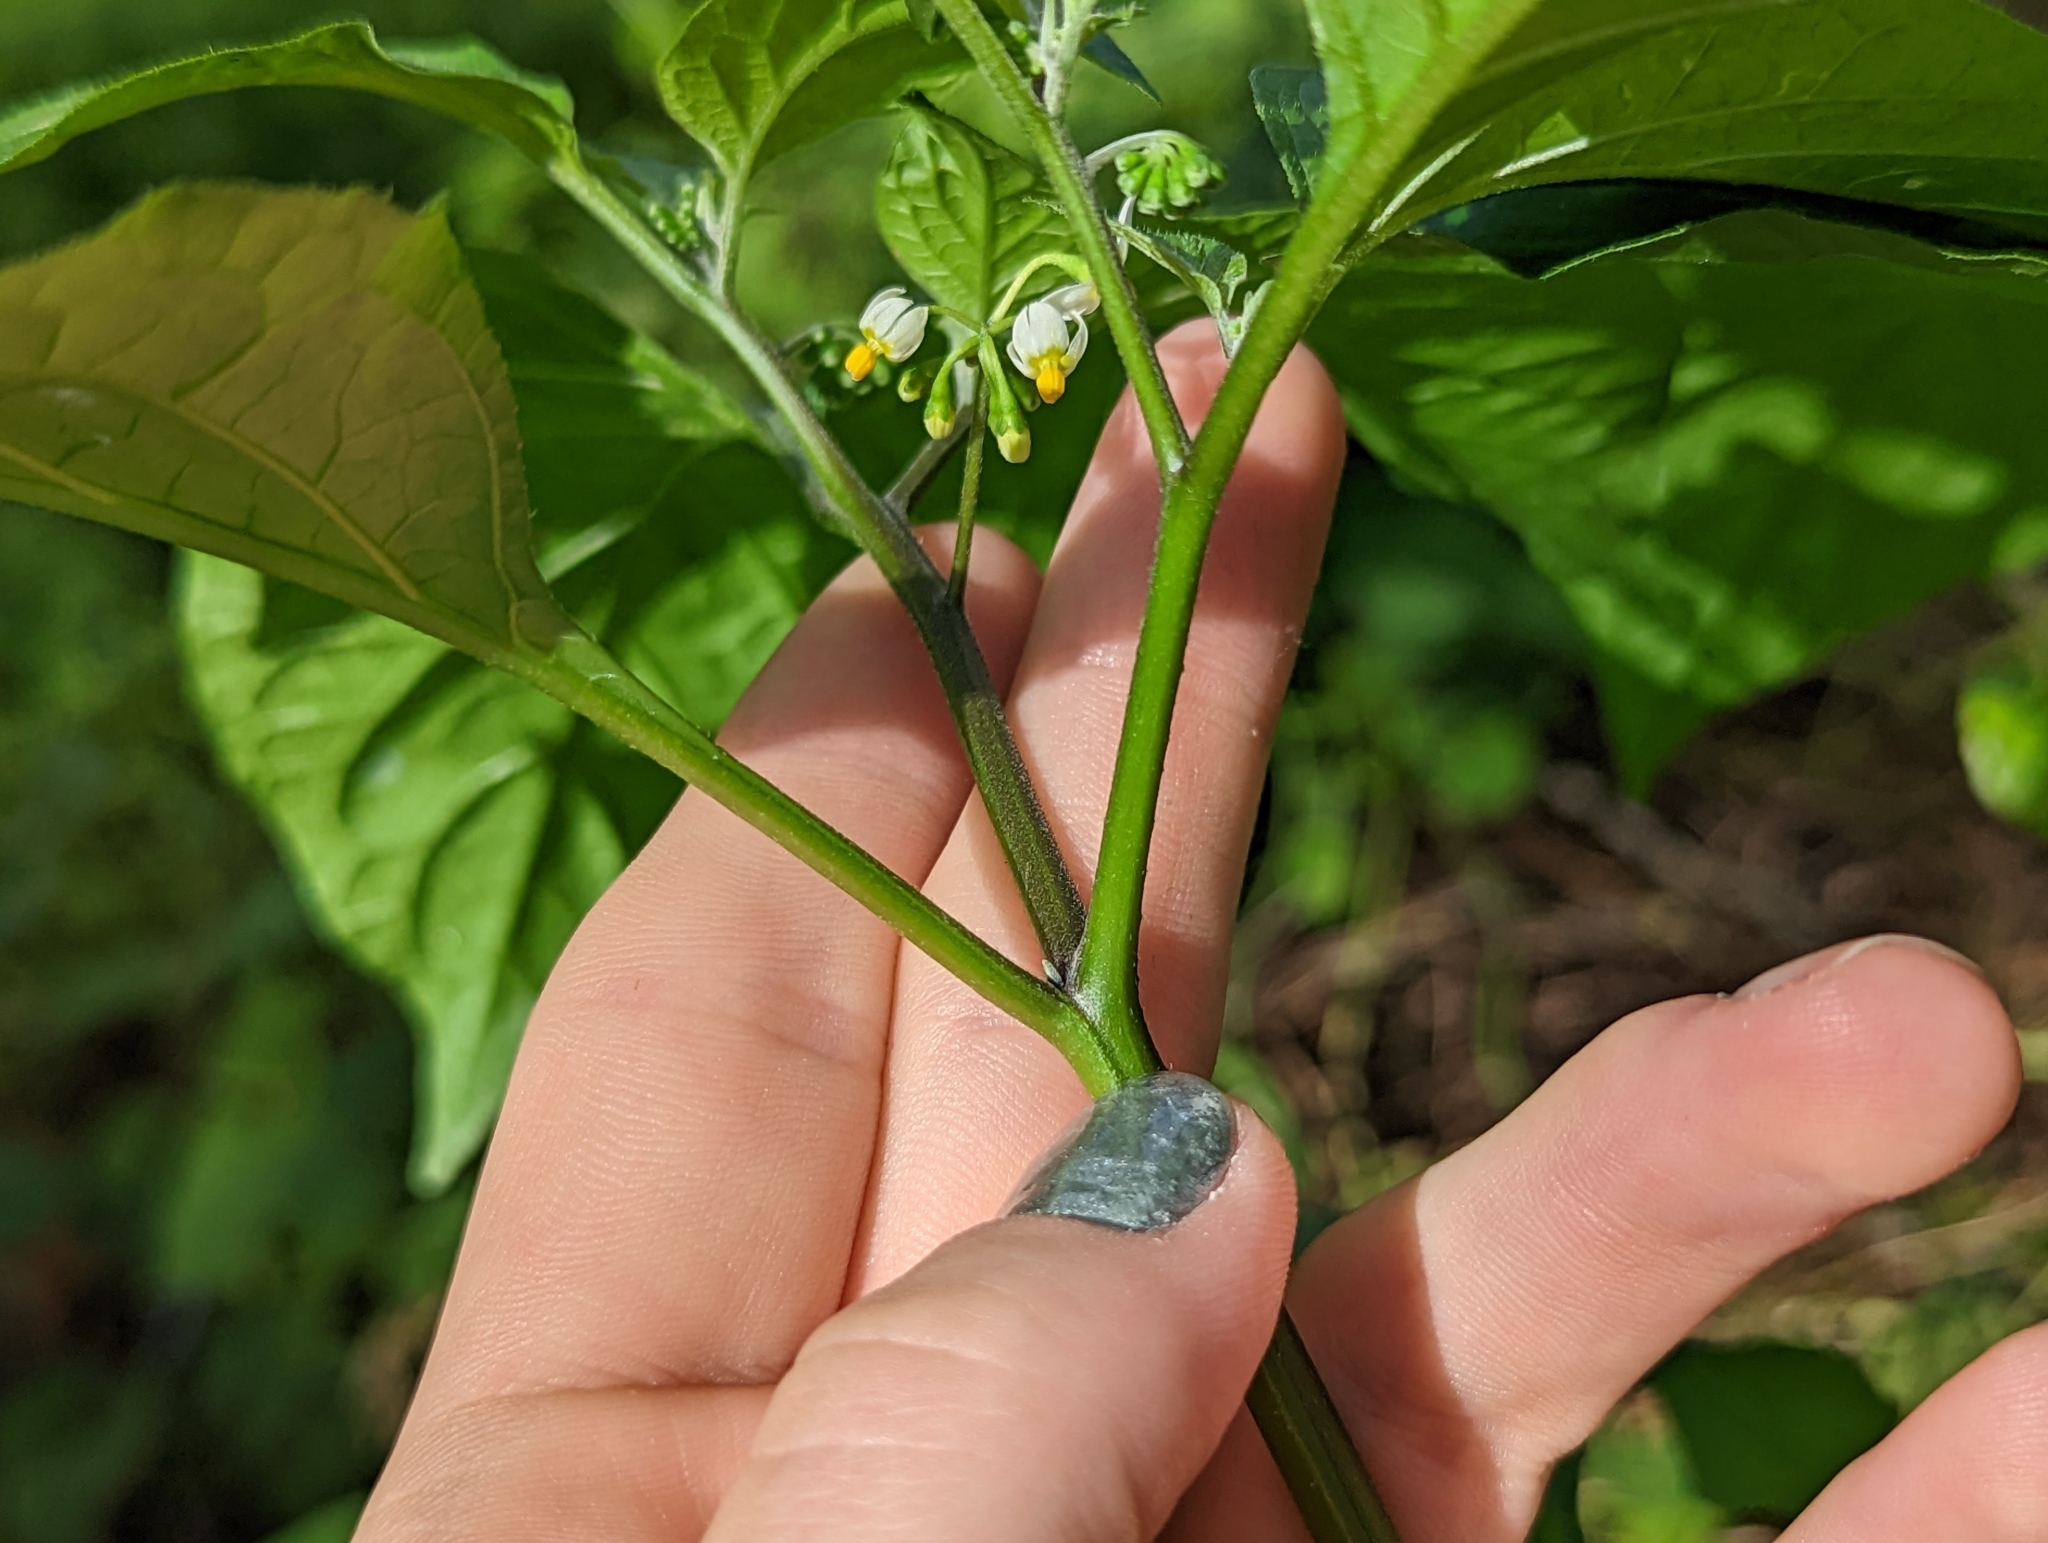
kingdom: Plantae
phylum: Tracheophyta
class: Magnoliopsida
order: Solanales
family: Solanaceae
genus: Solanum
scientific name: Solanum americanum
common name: American black nightshade
